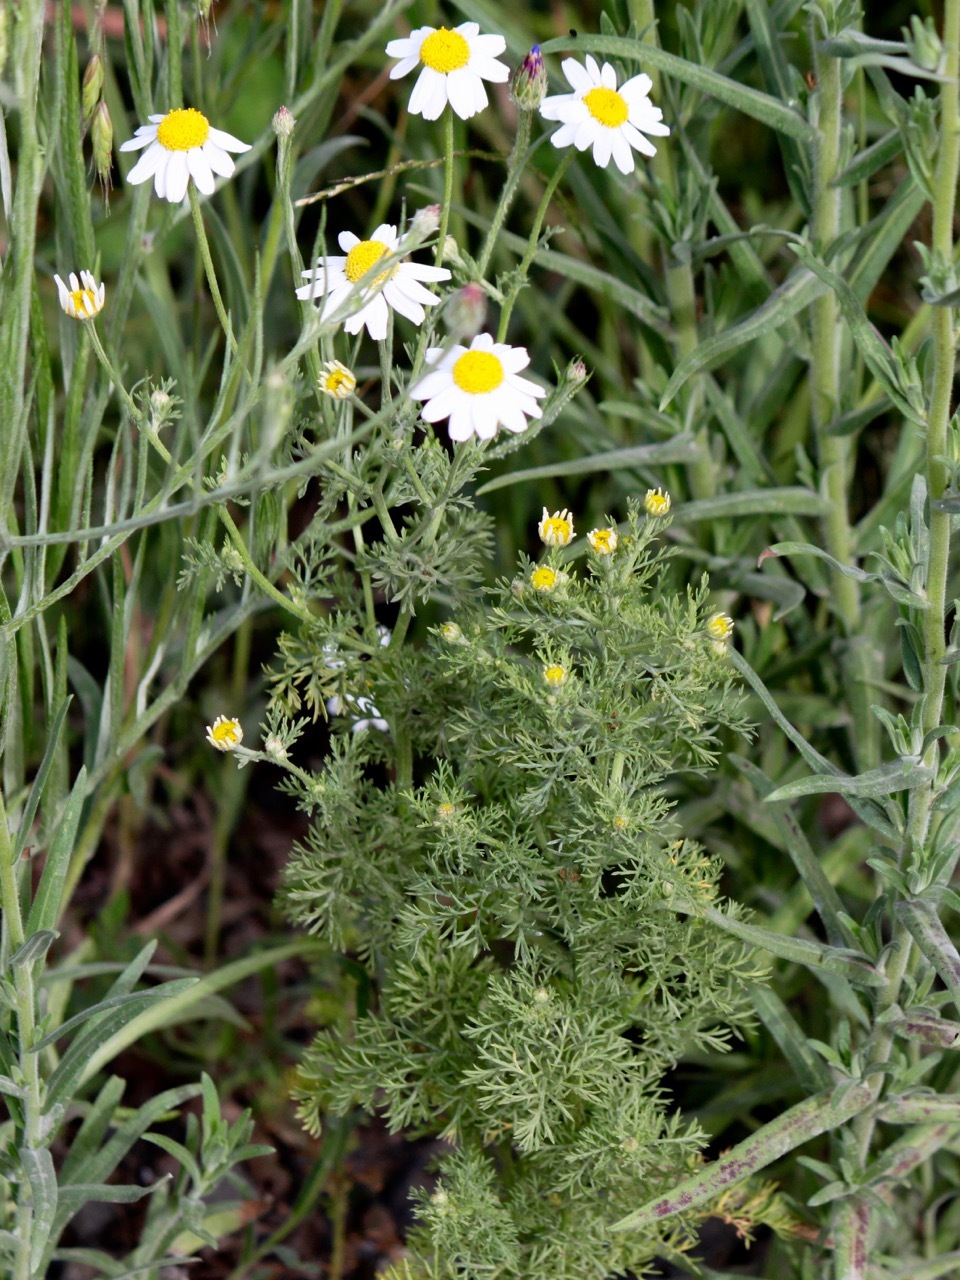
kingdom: Plantae
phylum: Tracheophyta
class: Magnoliopsida
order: Asterales
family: Asteraceae
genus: Anthemis
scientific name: Anthemis cotula
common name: Stinking chamomile
